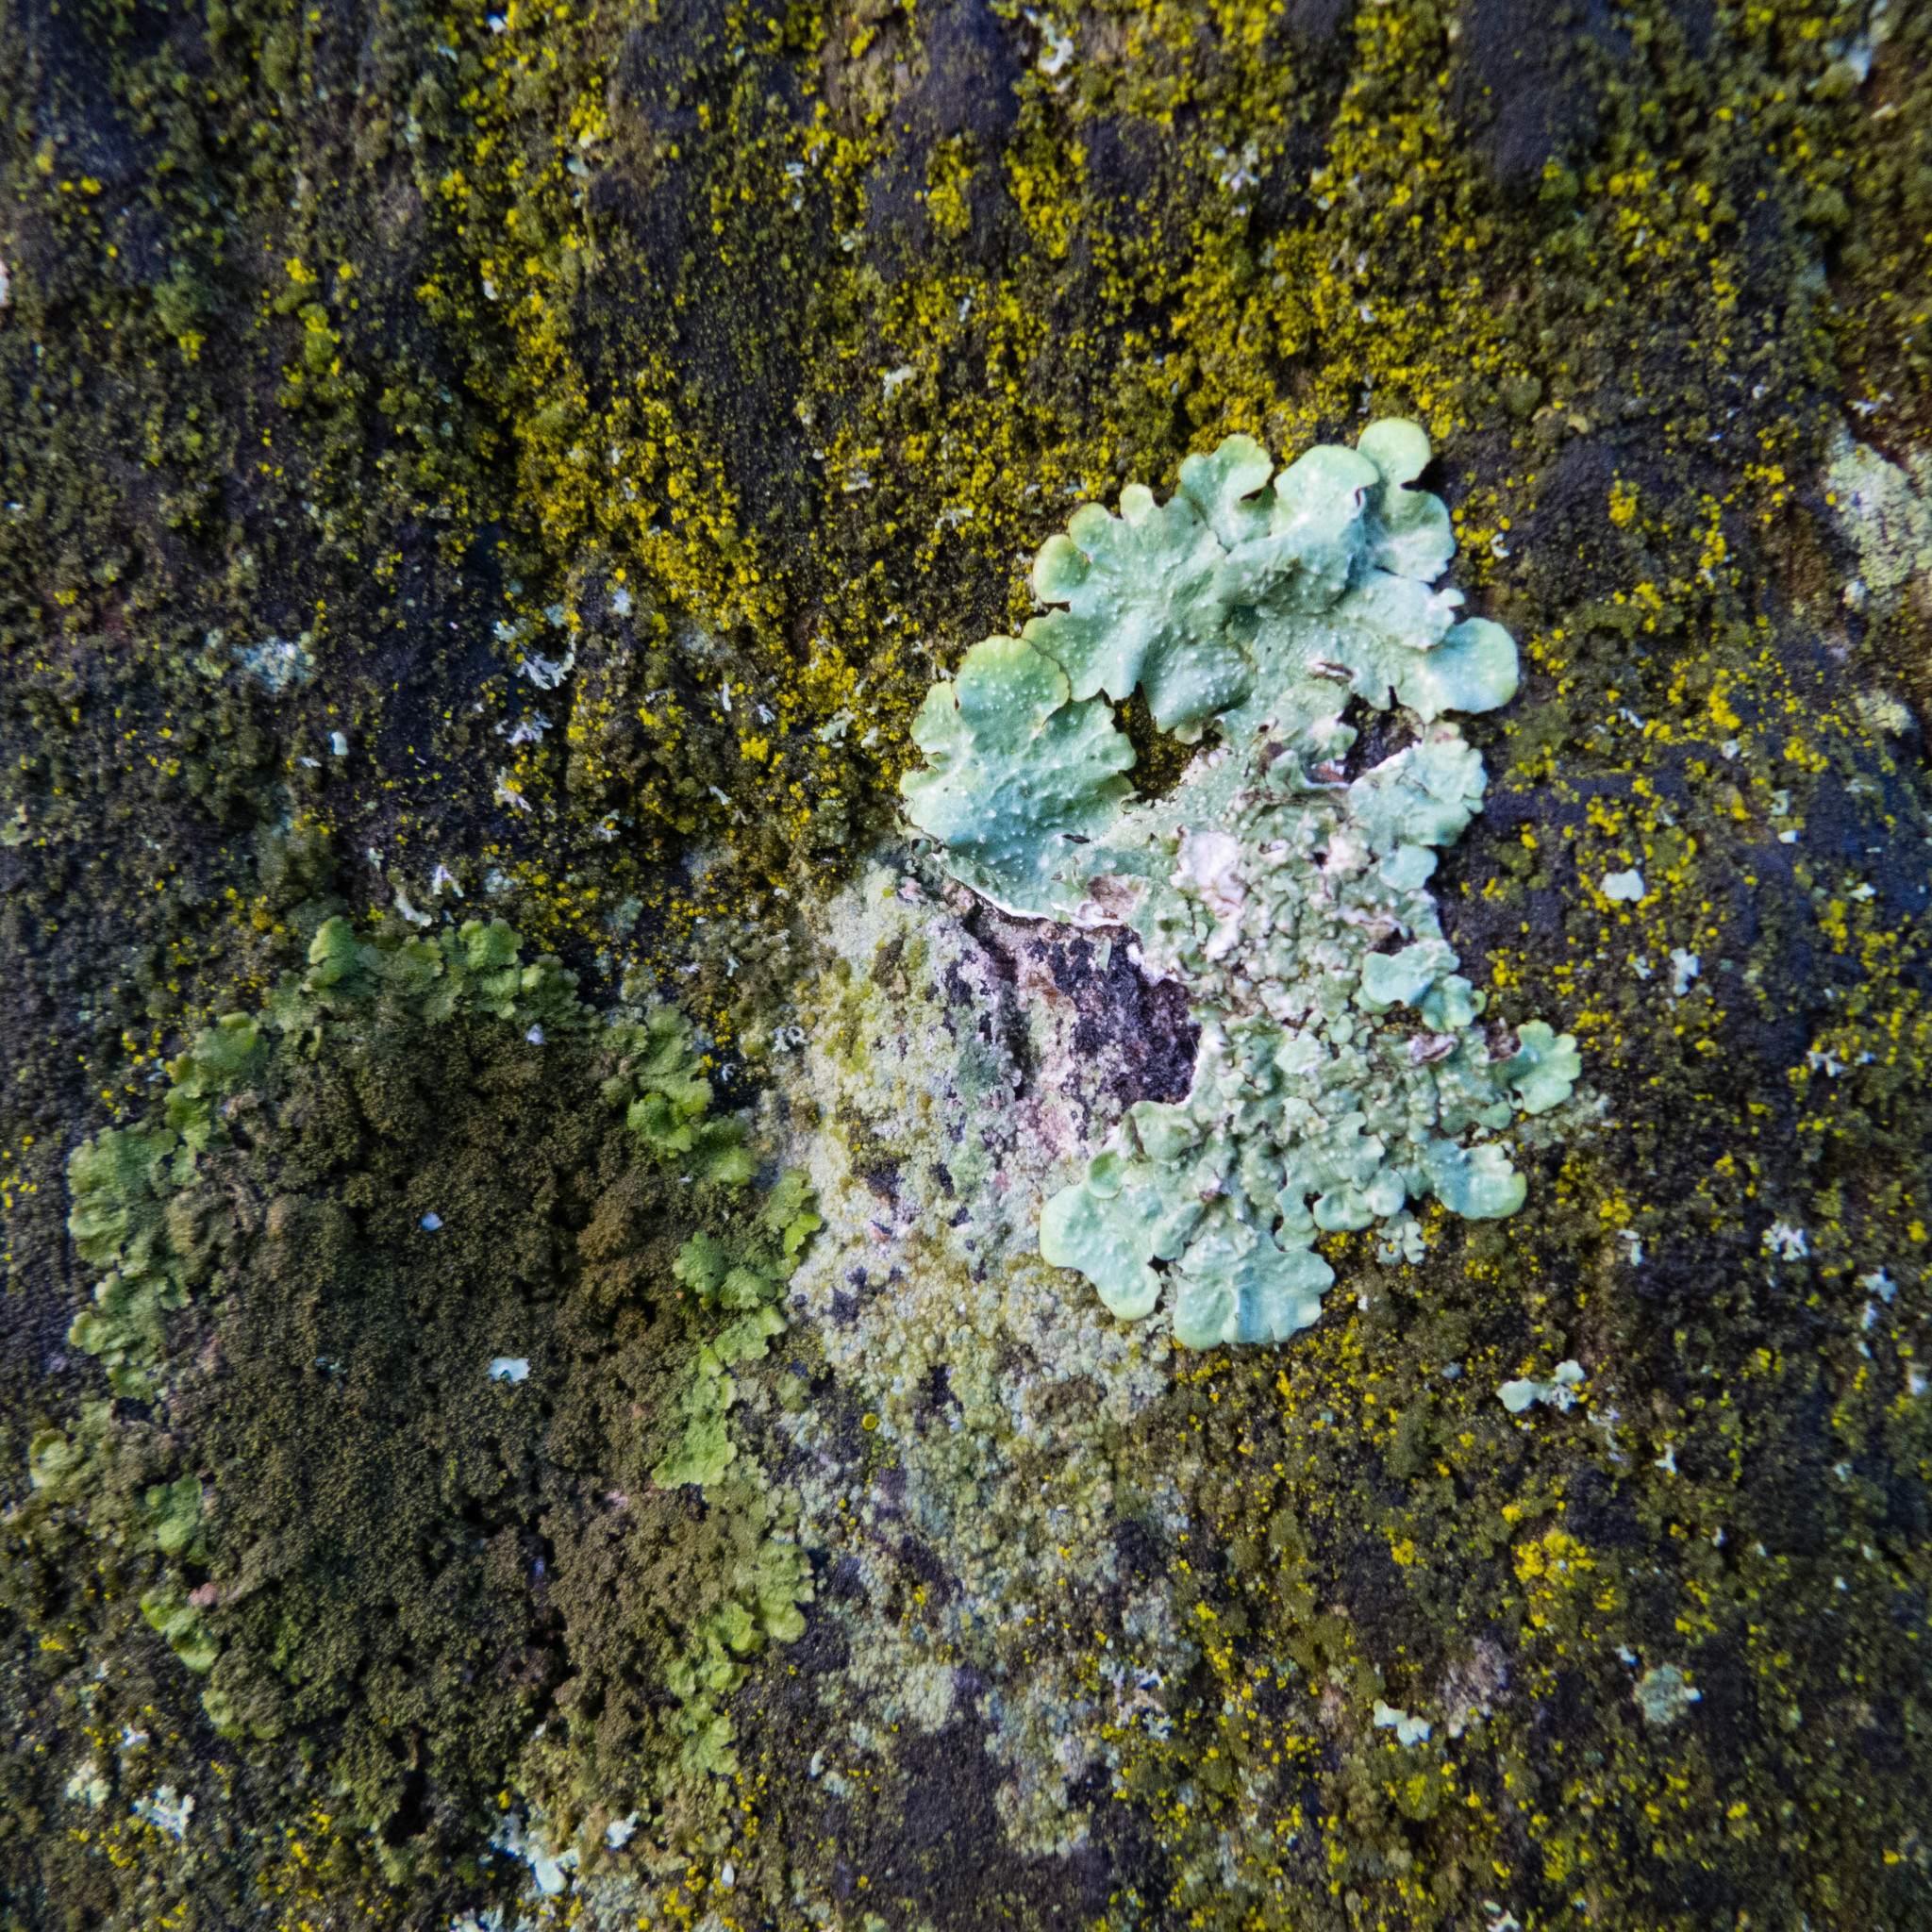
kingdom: Fungi
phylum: Ascomycota
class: Lecanoromycetes
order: Lecanorales
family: Parmeliaceae
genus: Punctelia
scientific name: Punctelia
